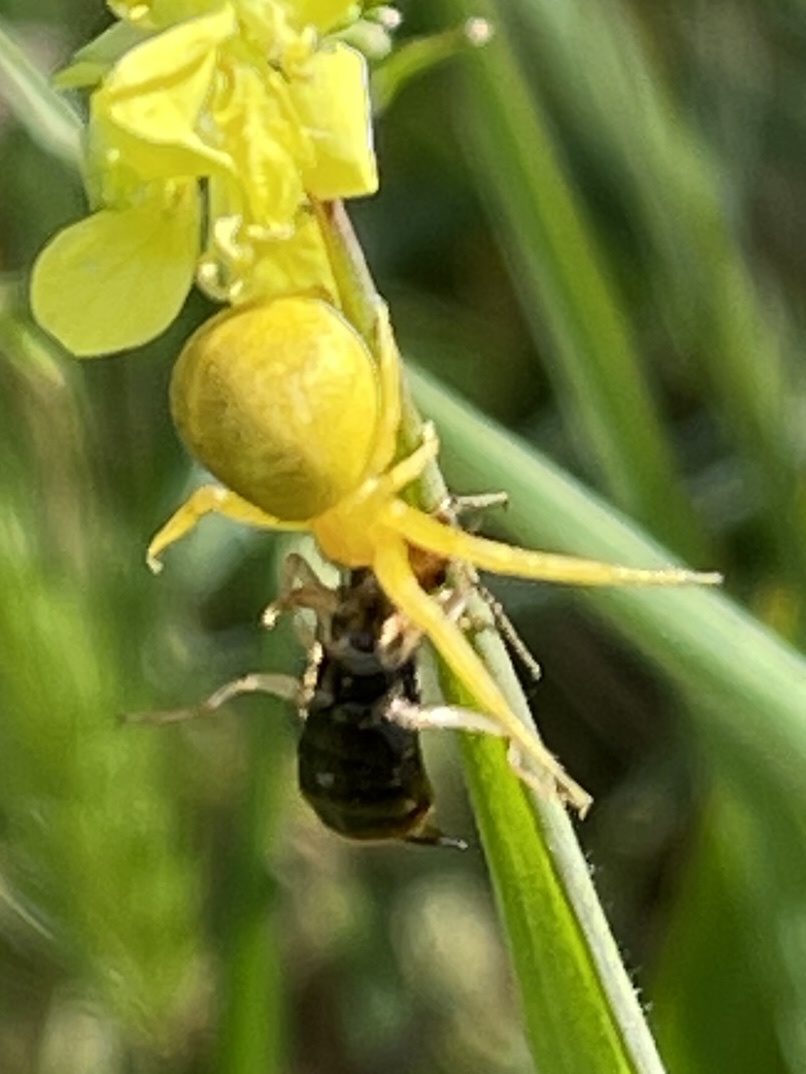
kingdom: Animalia
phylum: Arthropoda
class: Arachnida
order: Araneae
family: Thomisidae
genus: Misumena
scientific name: Misumena vatia
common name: Goldenrod crab spider
